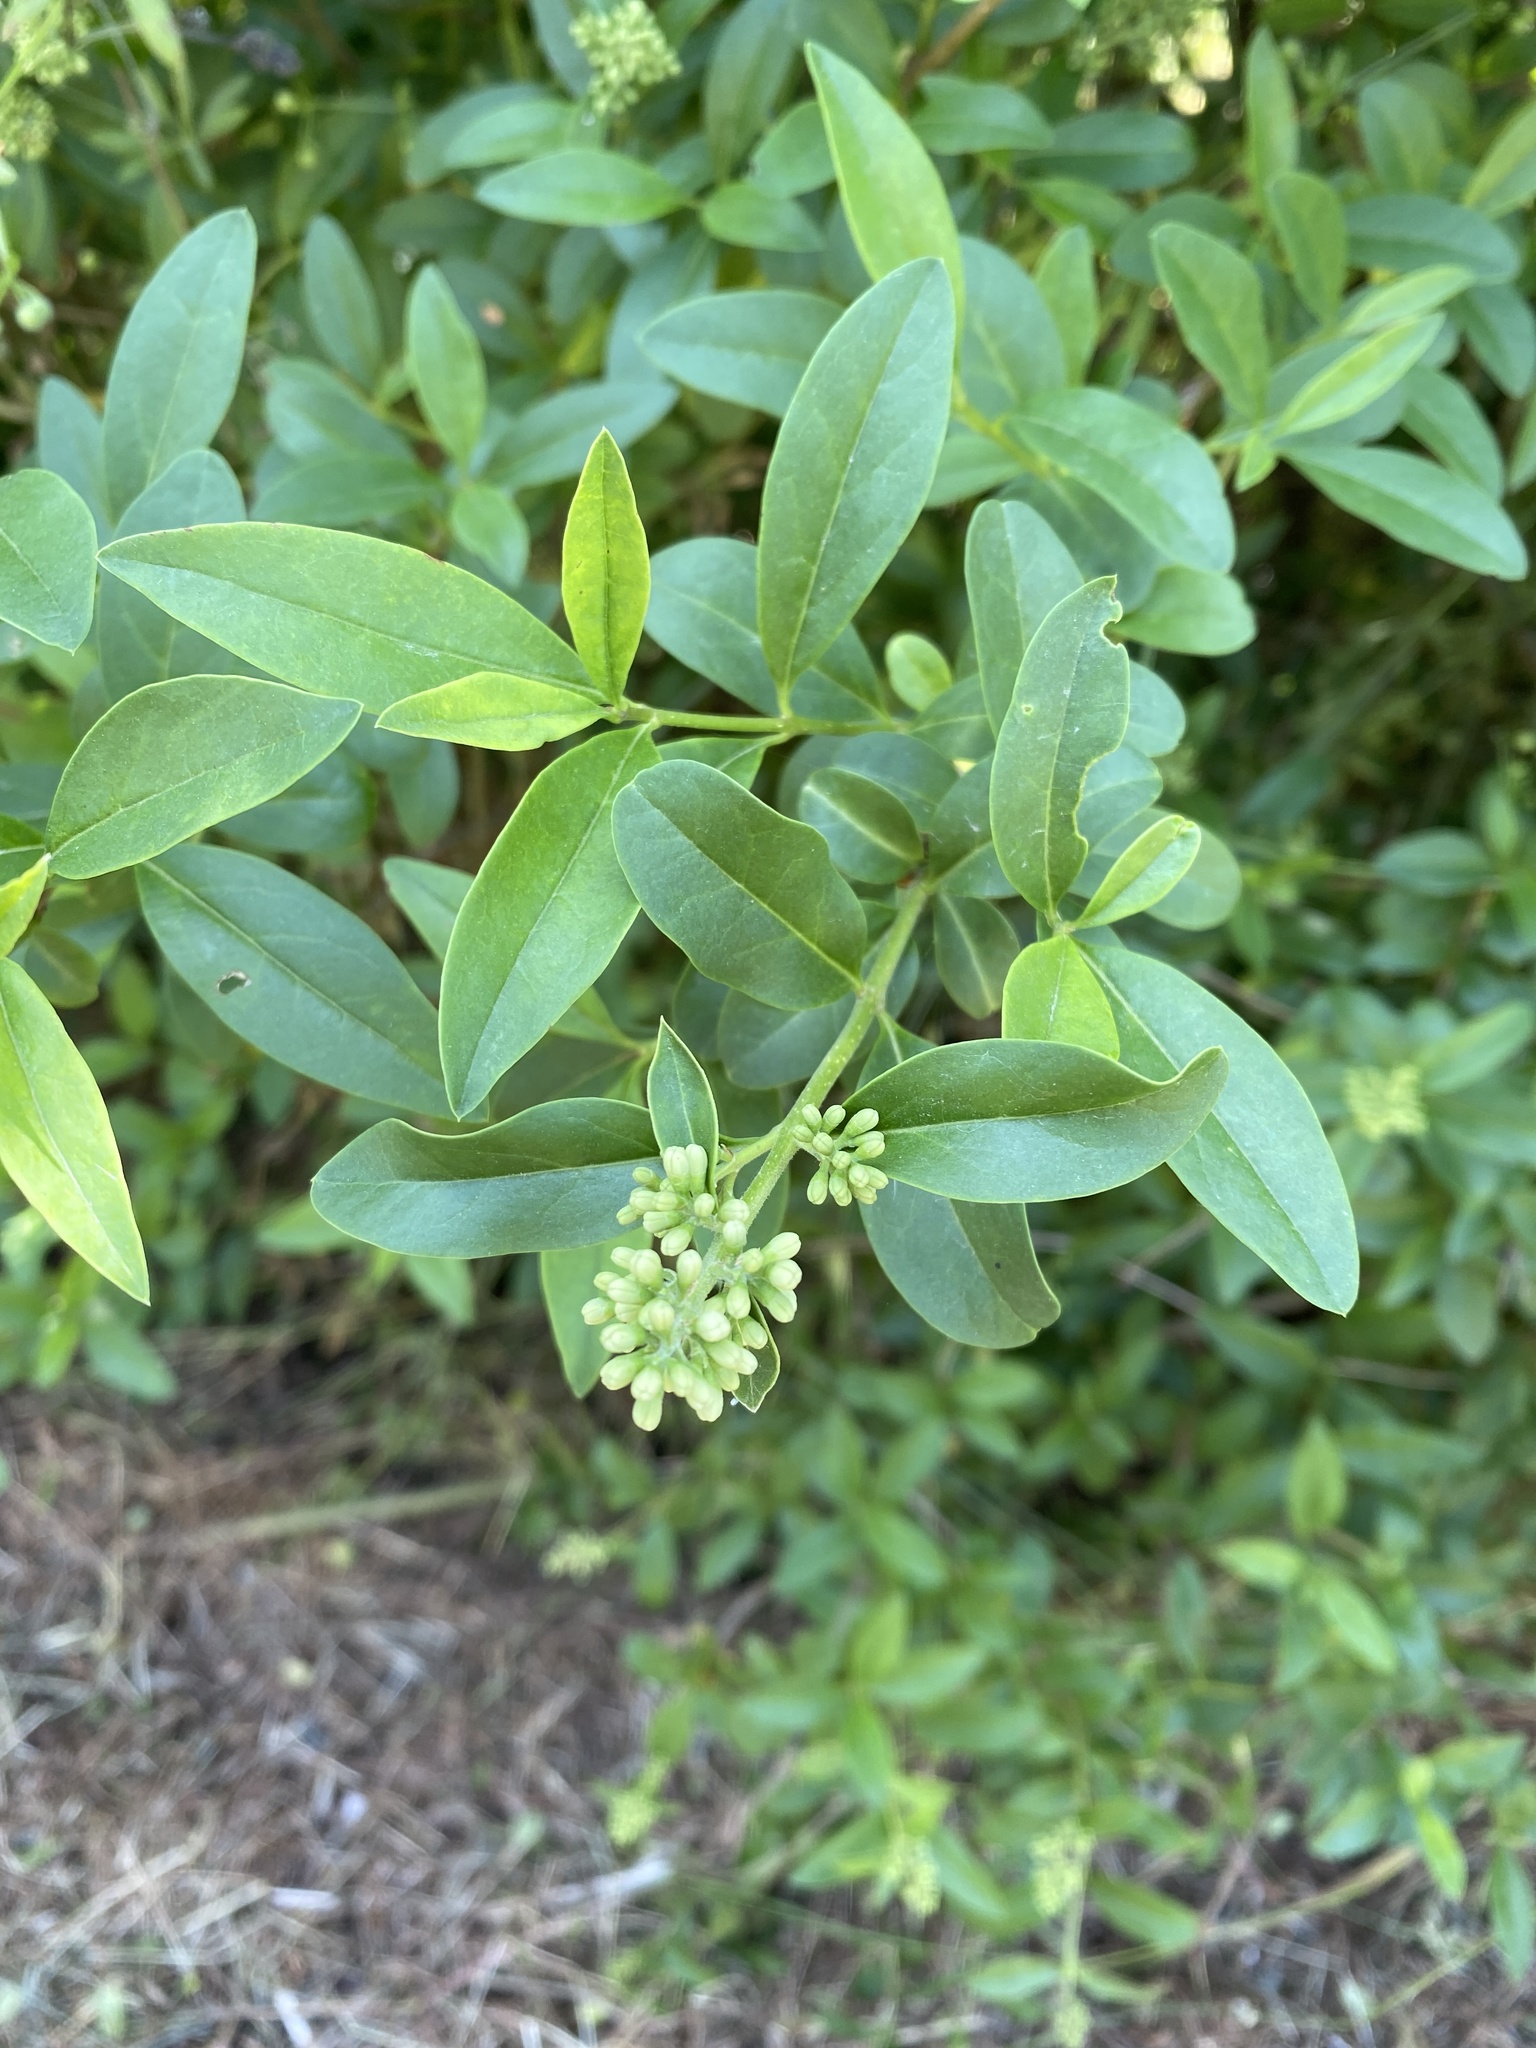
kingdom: Plantae
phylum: Tracheophyta
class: Magnoliopsida
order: Lamiales
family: Oleaceae
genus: Ligustrum
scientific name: Ligustrum vulgare
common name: Wild privet
